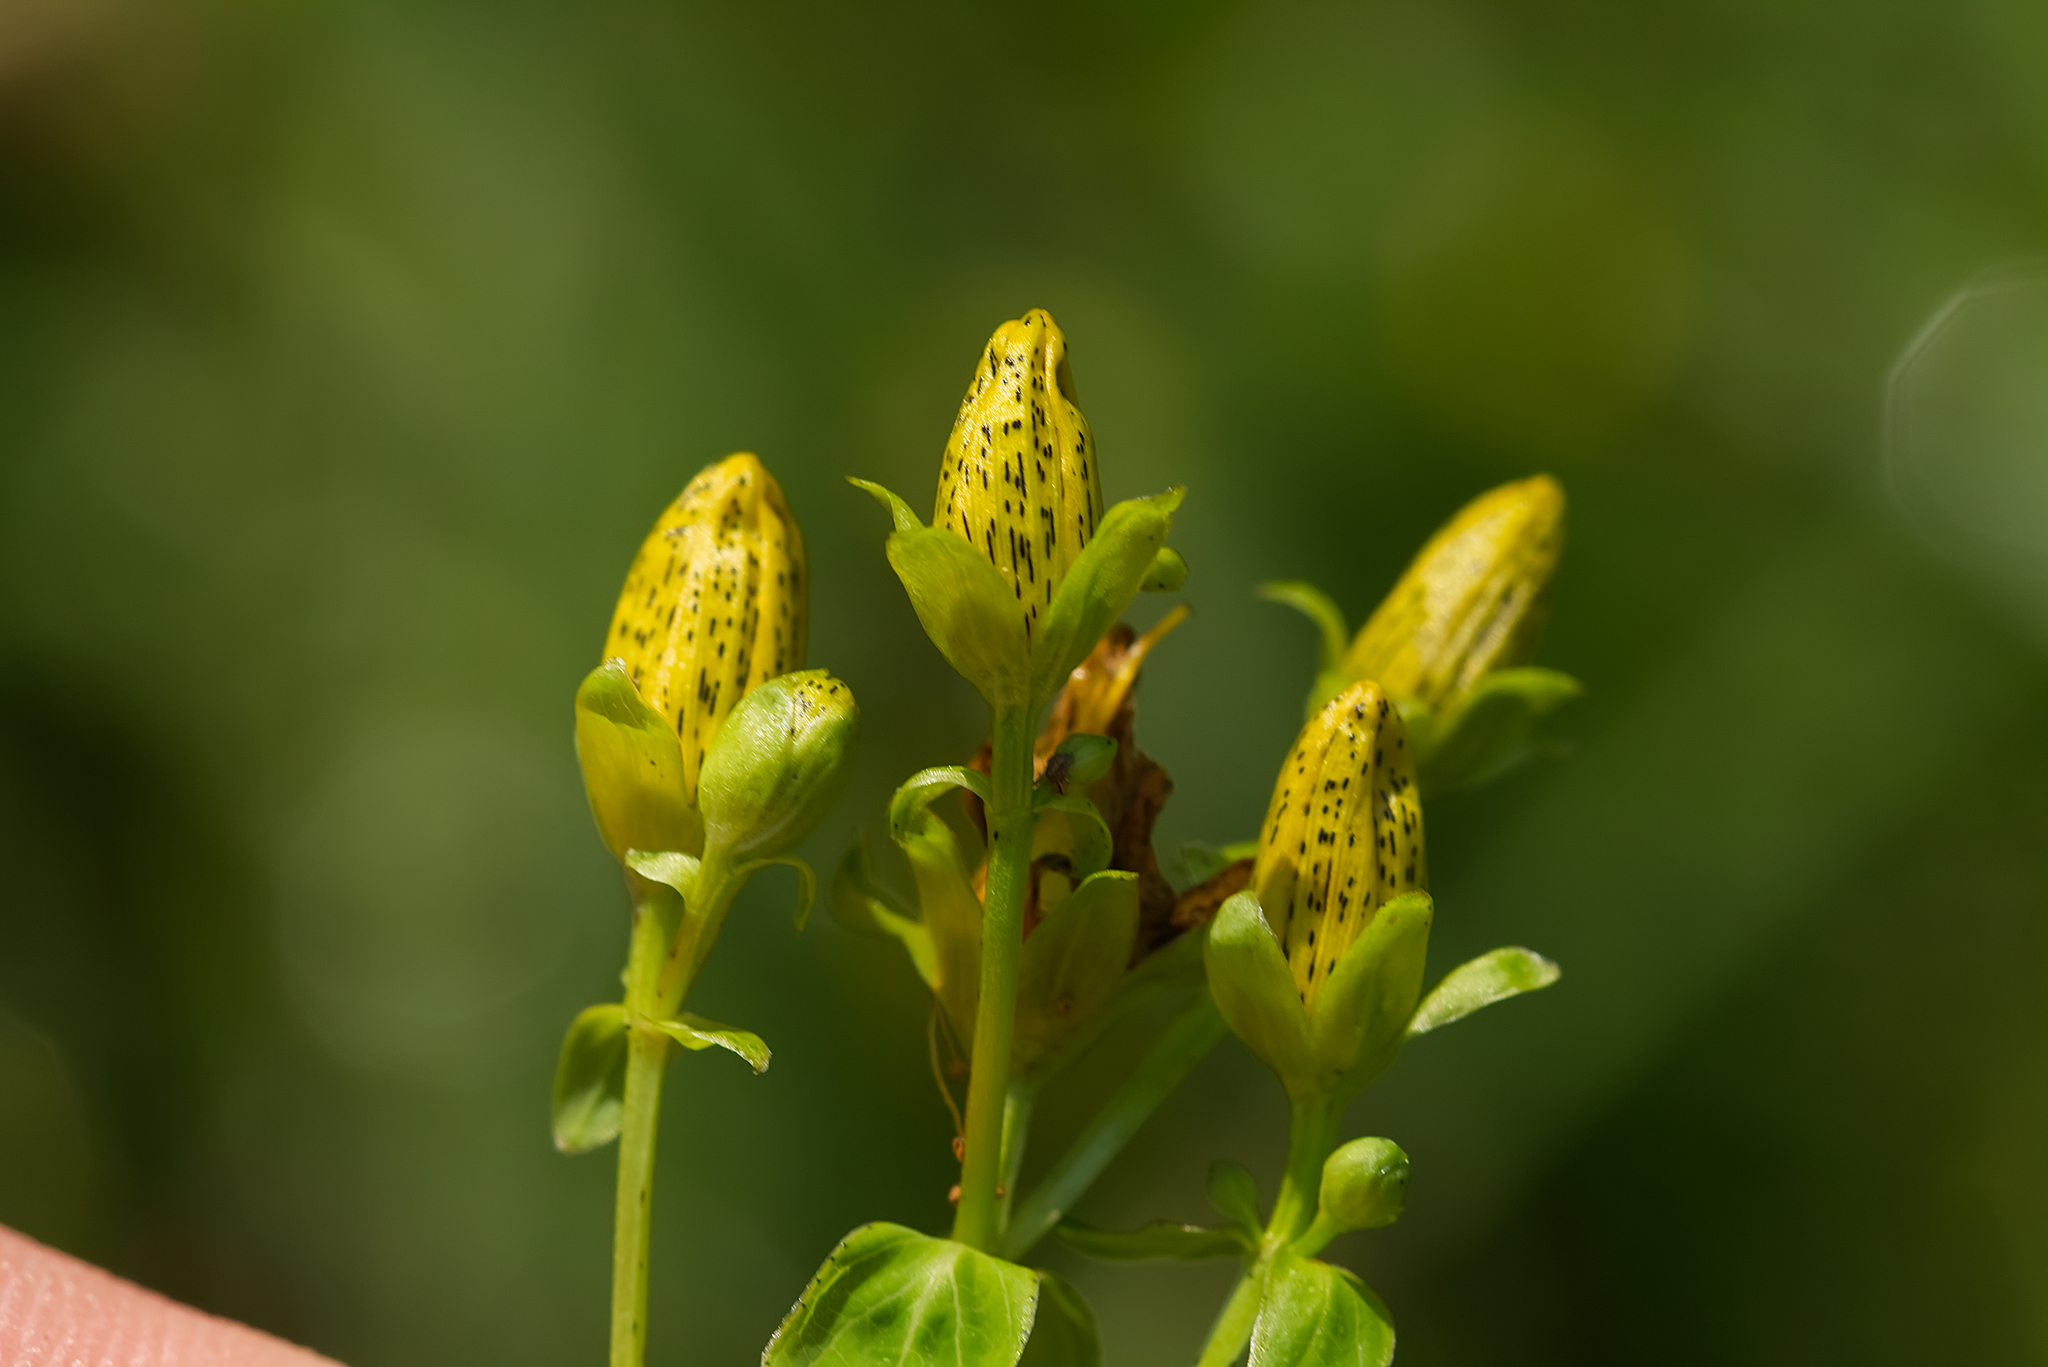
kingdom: Plantae
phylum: Tracheophyta
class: Magnoliopsida
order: Malpighiales
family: Hypericaceae
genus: Hypericum
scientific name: Hypericum maculatum
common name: Imperforate st. john's-wort
